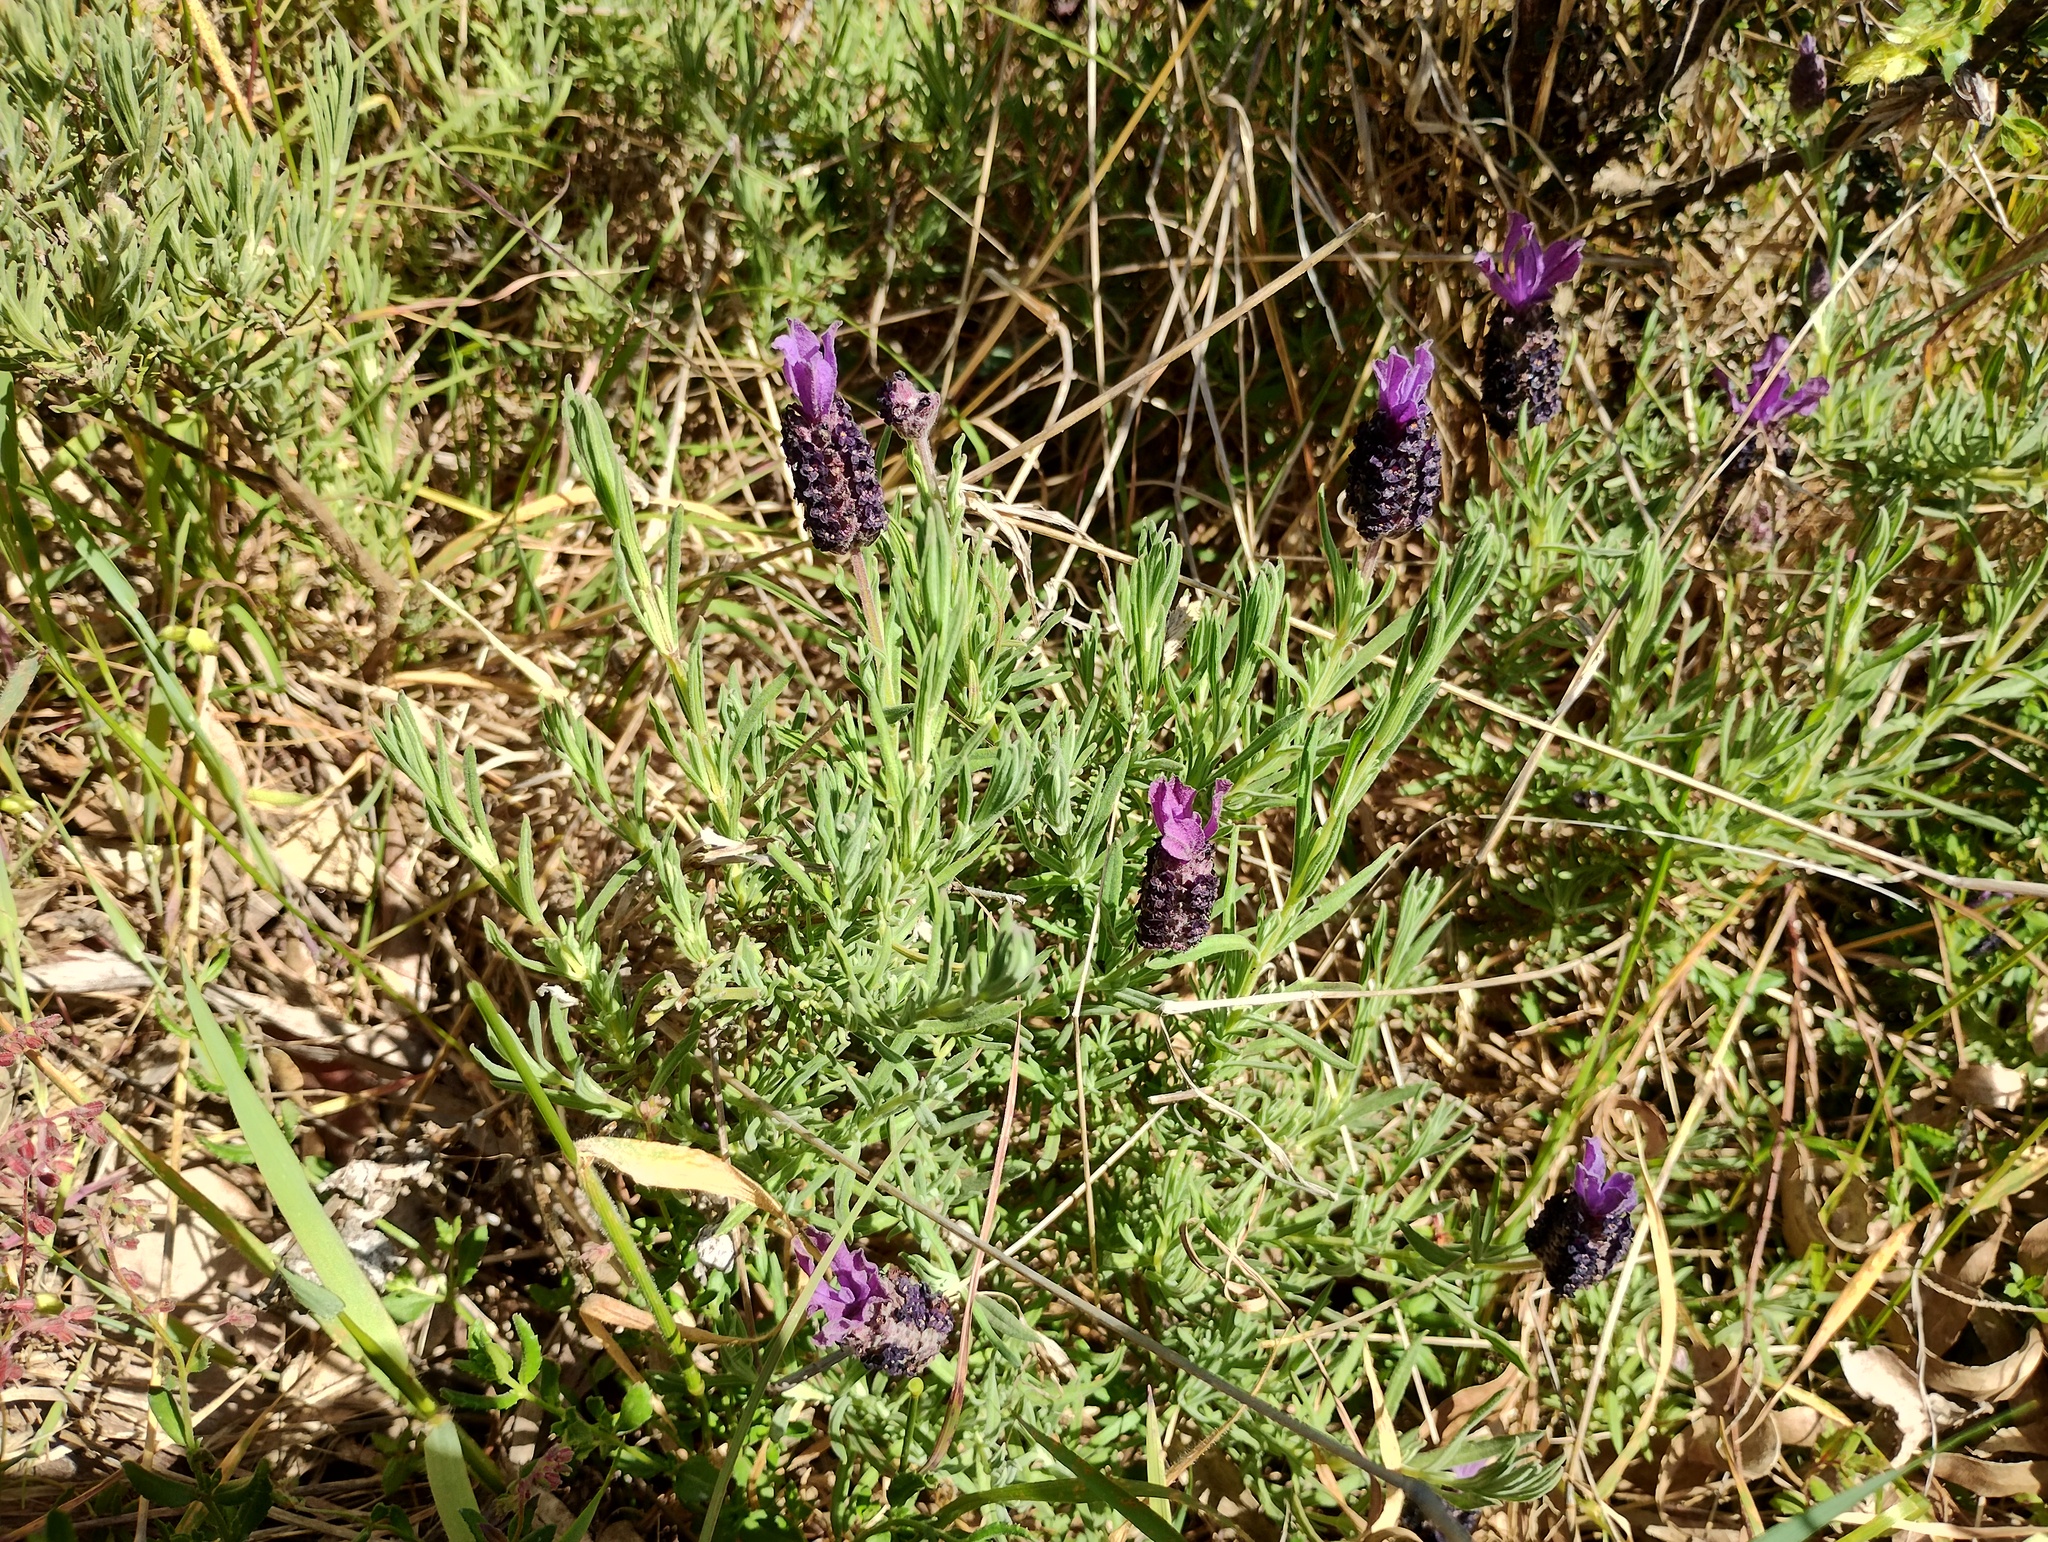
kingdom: Plantae
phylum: Tracheophyta
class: Magnoliopsida
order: Lamiales
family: Lamiaceae
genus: Lavandula
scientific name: Lavandula stoechas
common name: French lavender
